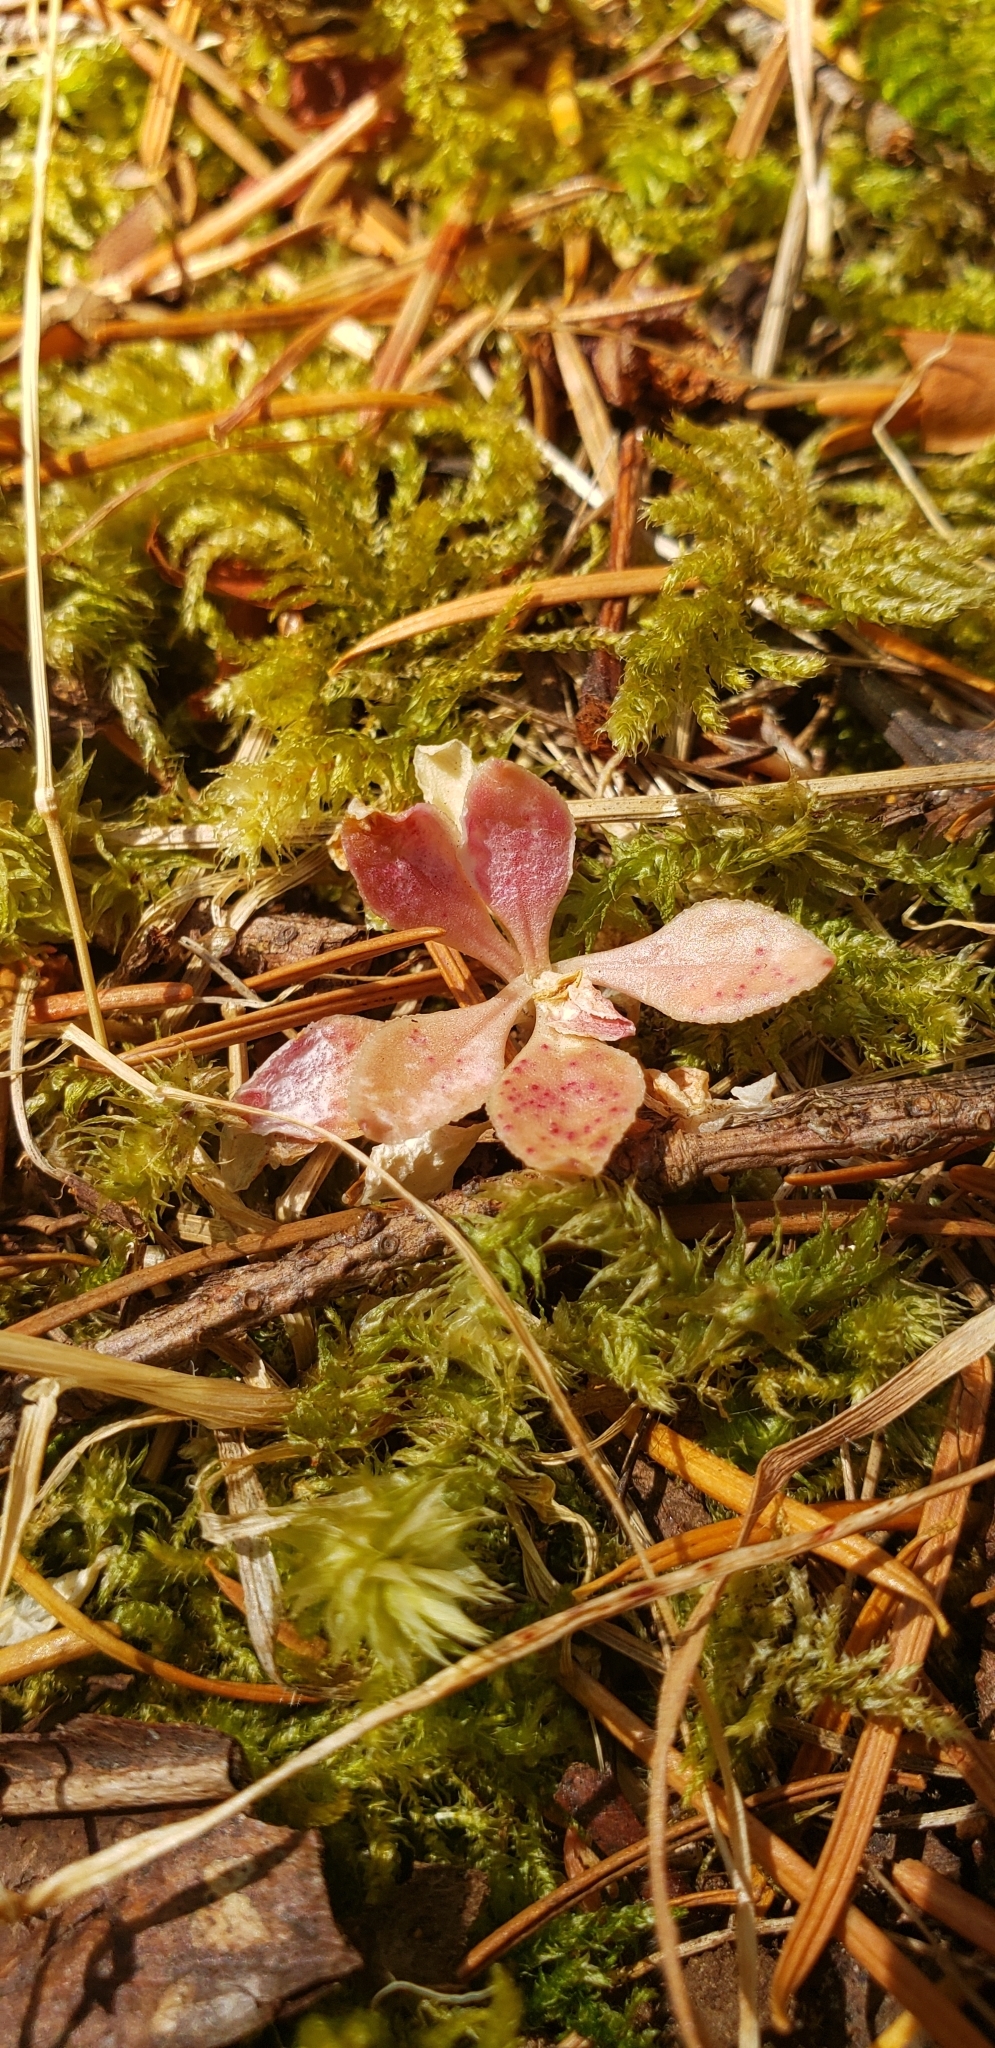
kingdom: Plantae
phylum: Tracheophyta
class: Magnoliopsida
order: Caryophyllales
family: Montiaceae
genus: Montia
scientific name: Montia parvifolia
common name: Small-leaved blinks
